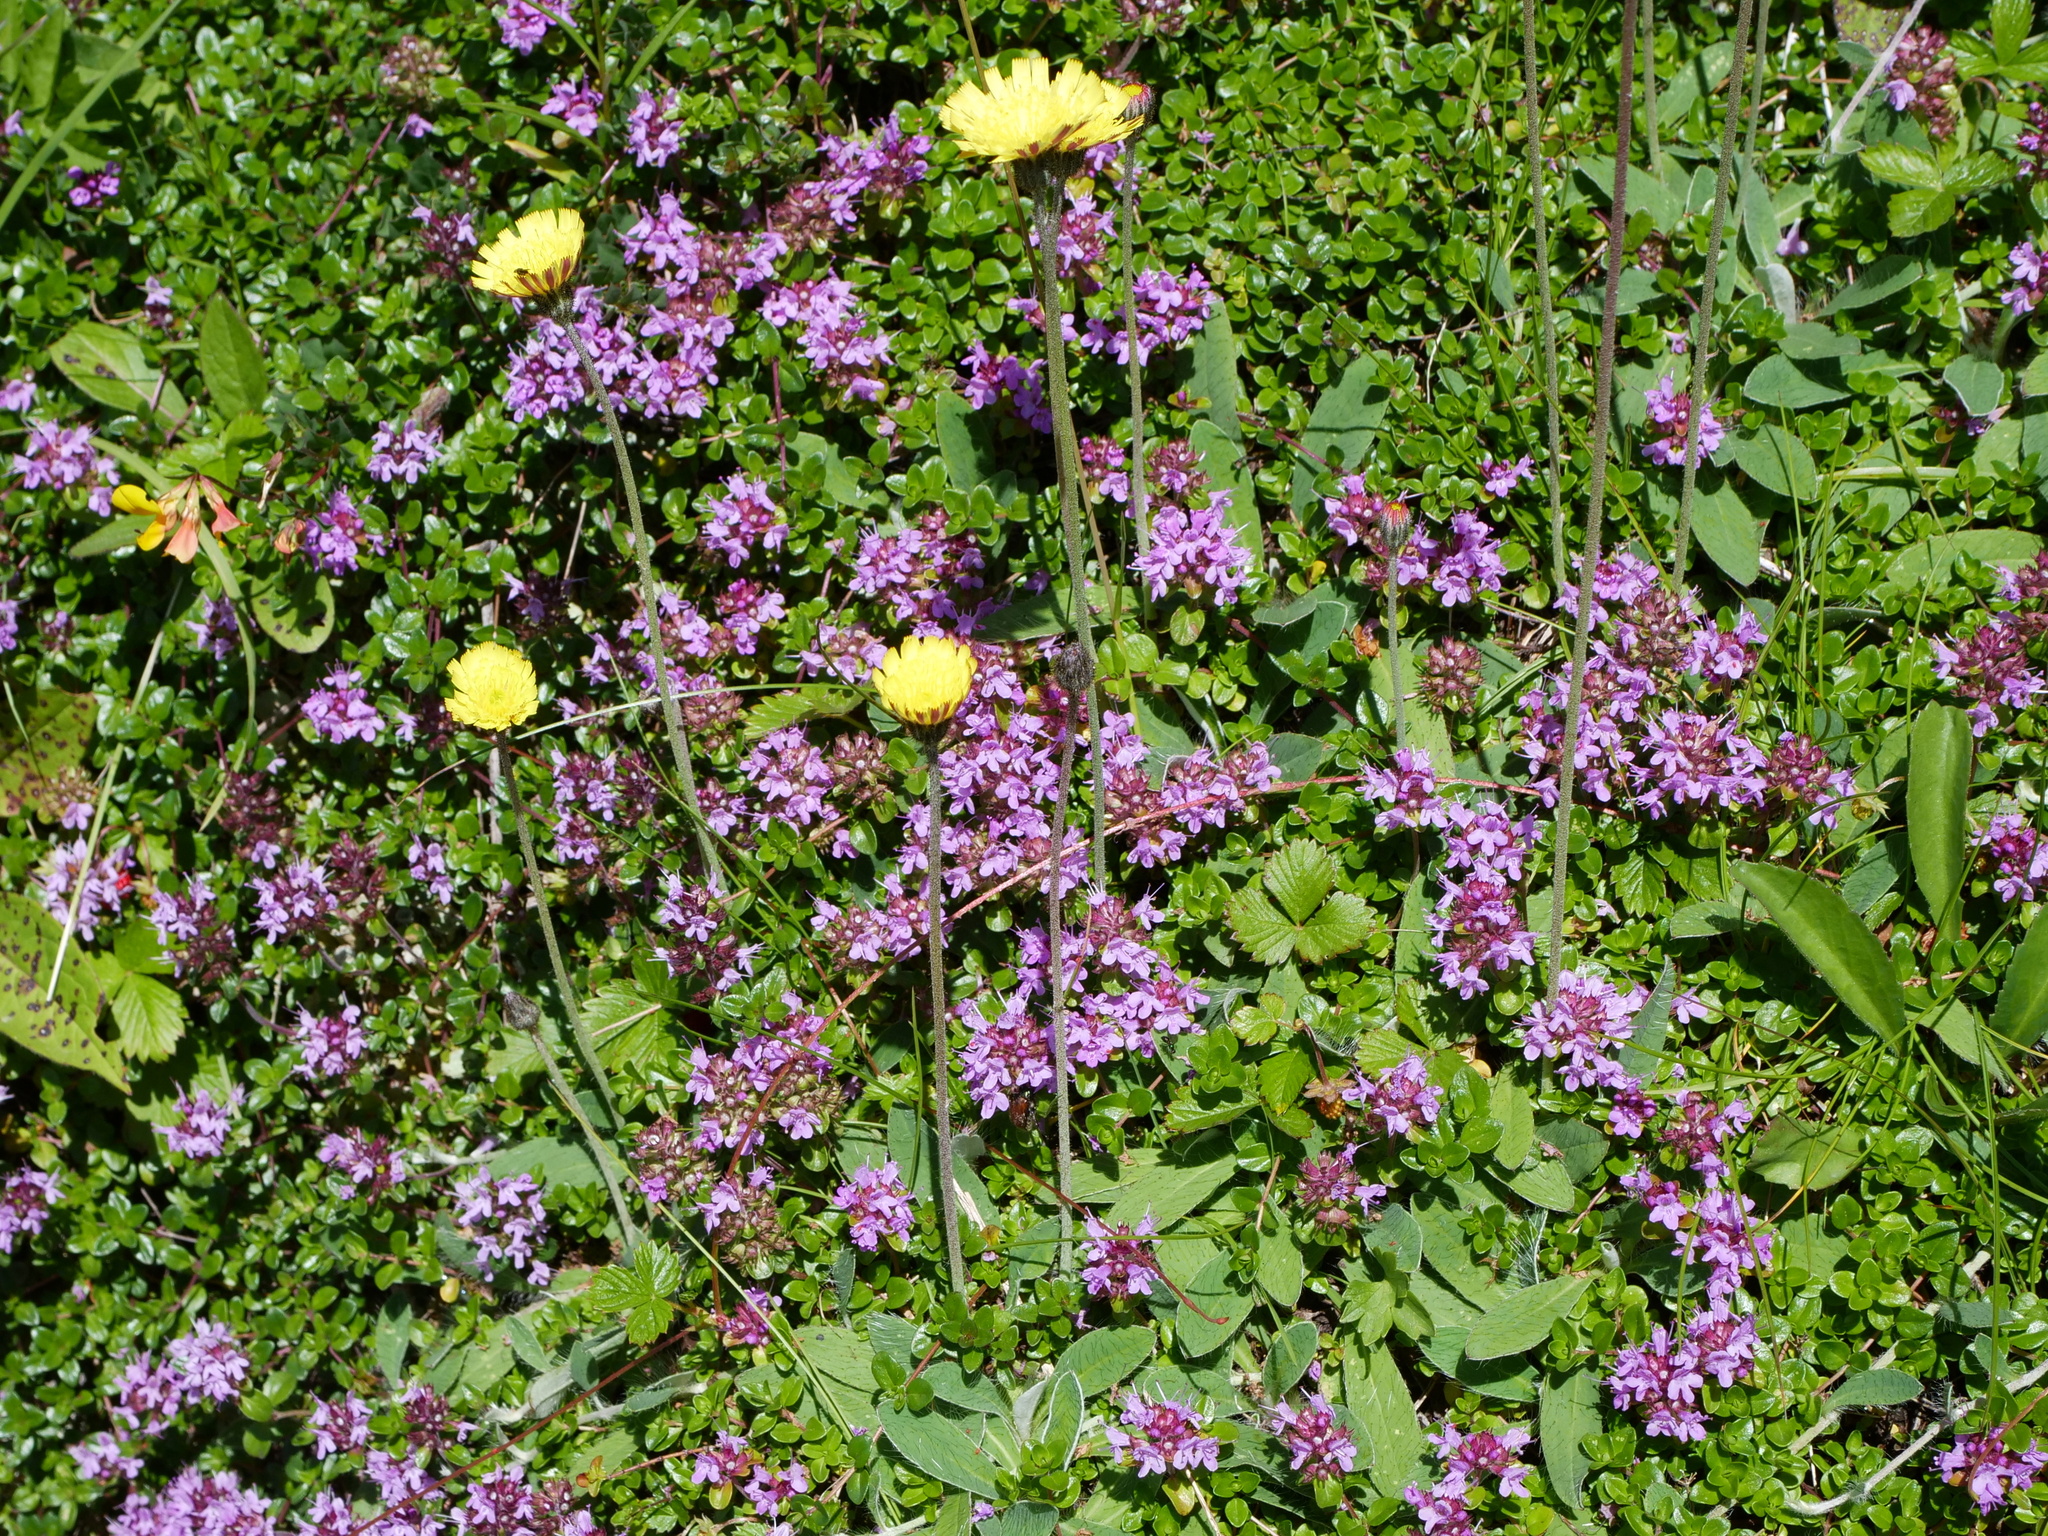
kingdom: Plantae
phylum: Tracheophyta
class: Magnoliopsida
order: Asterales
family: Asteraceae
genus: Pilosella
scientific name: Pilosella officinarum
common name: Mouse-ear hawkweed
